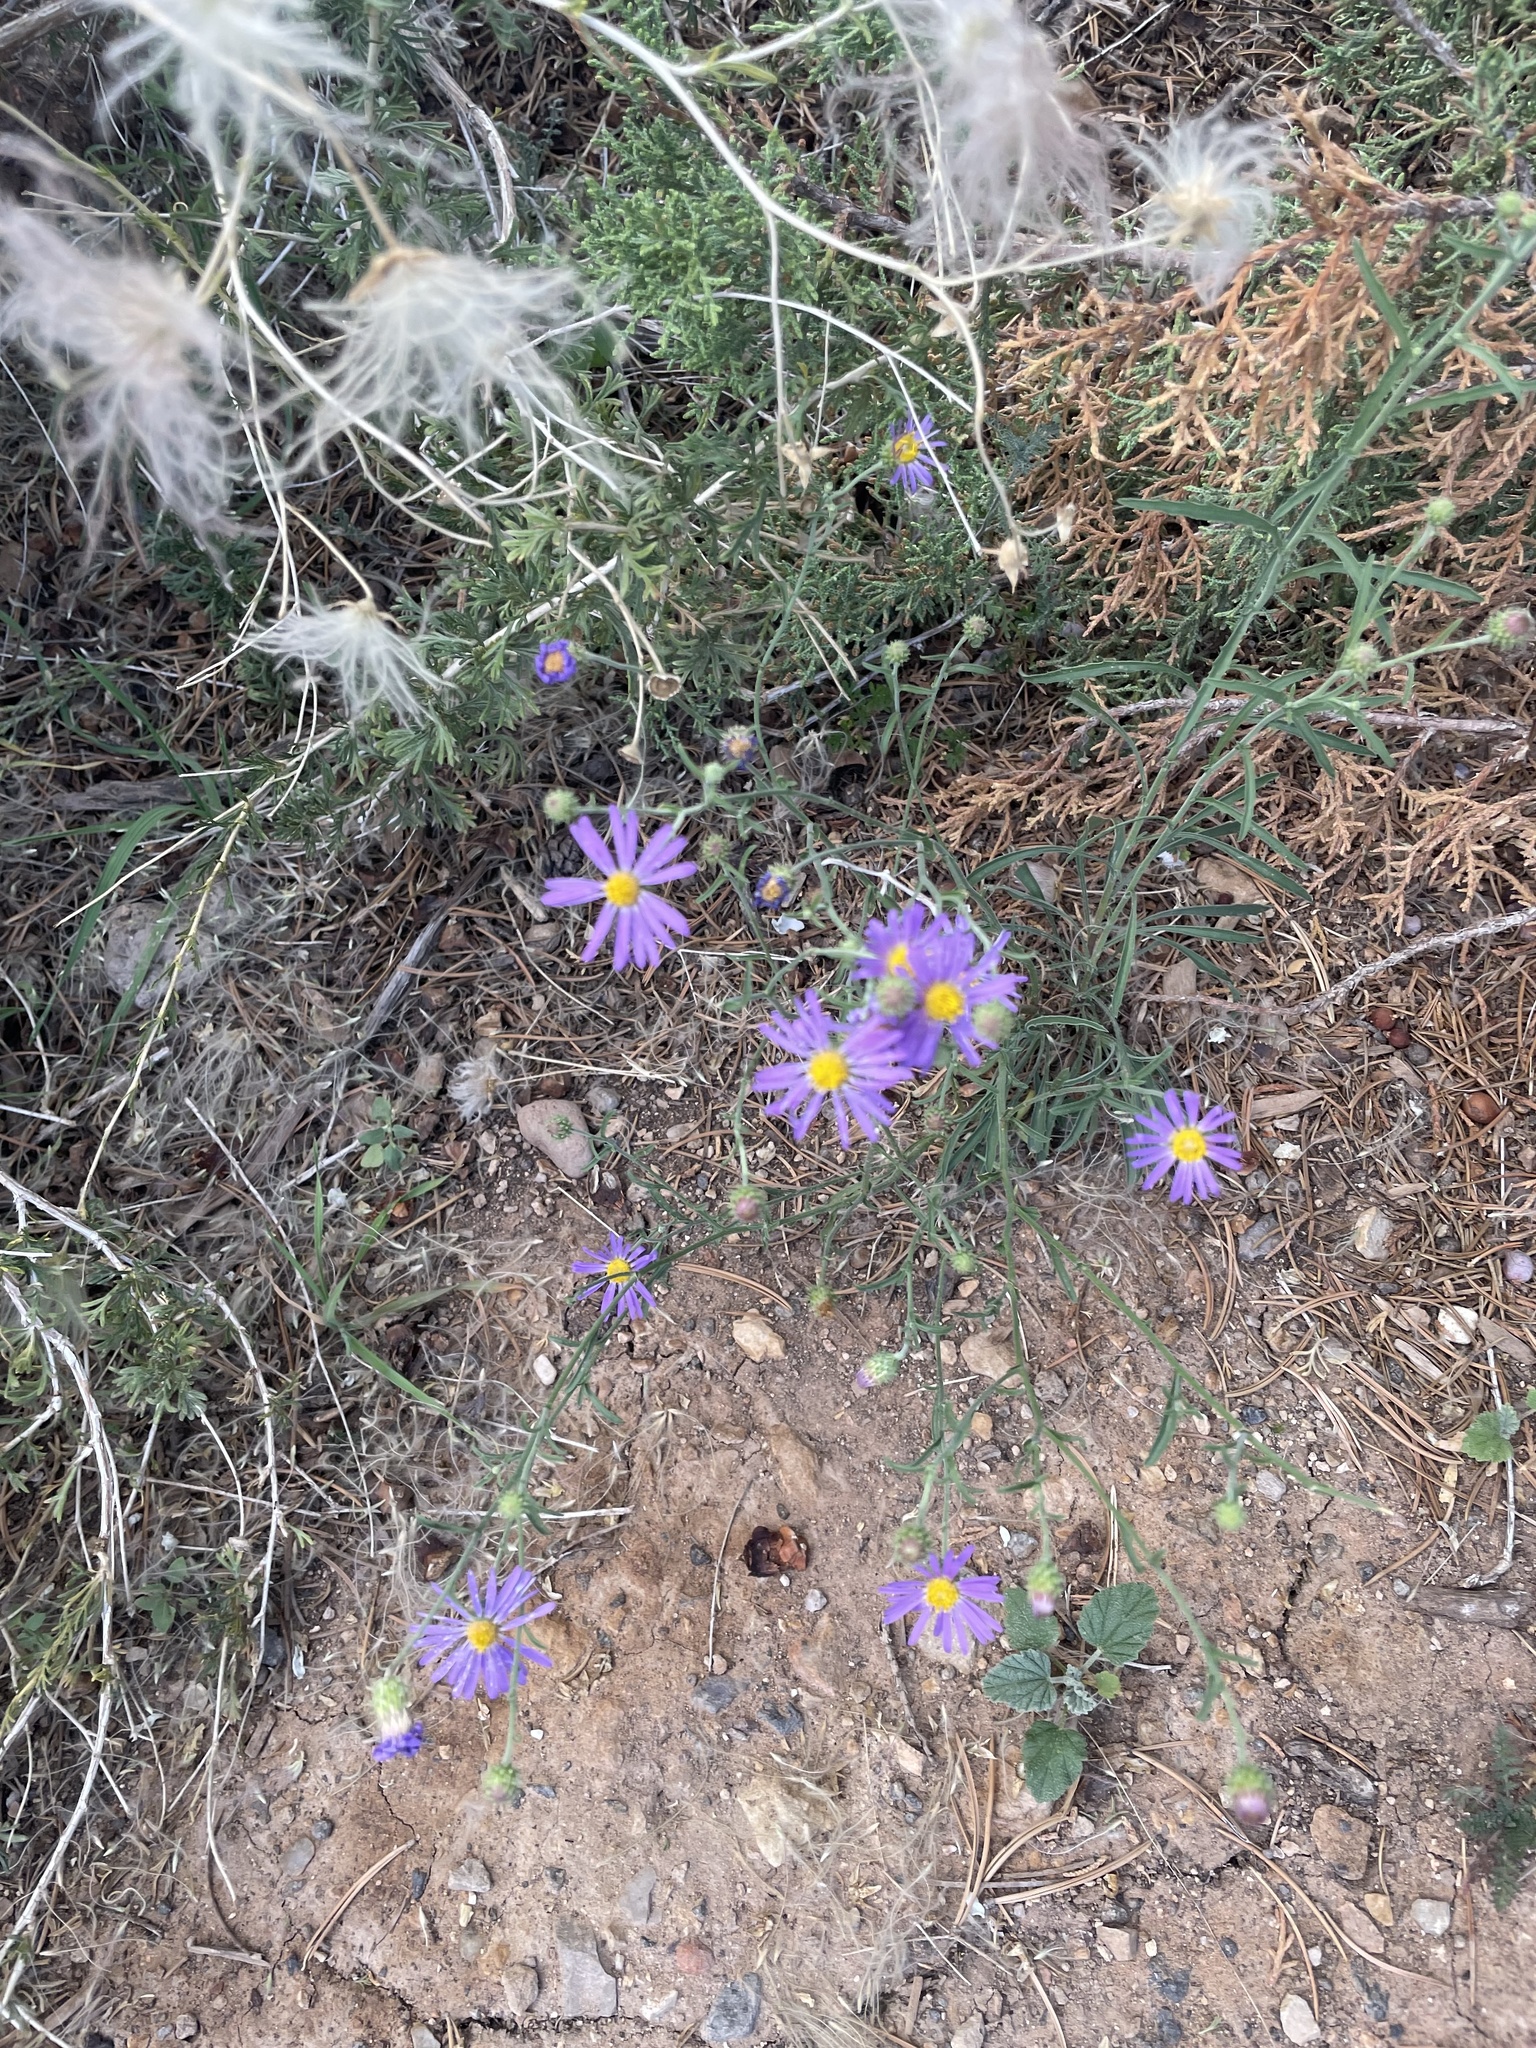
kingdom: Plantae
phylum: Tracheophyta
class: Magnoliopsida
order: Asterales
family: Asteraceae
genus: Dieteria
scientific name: Dieteria canescens
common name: Hoary-aster
